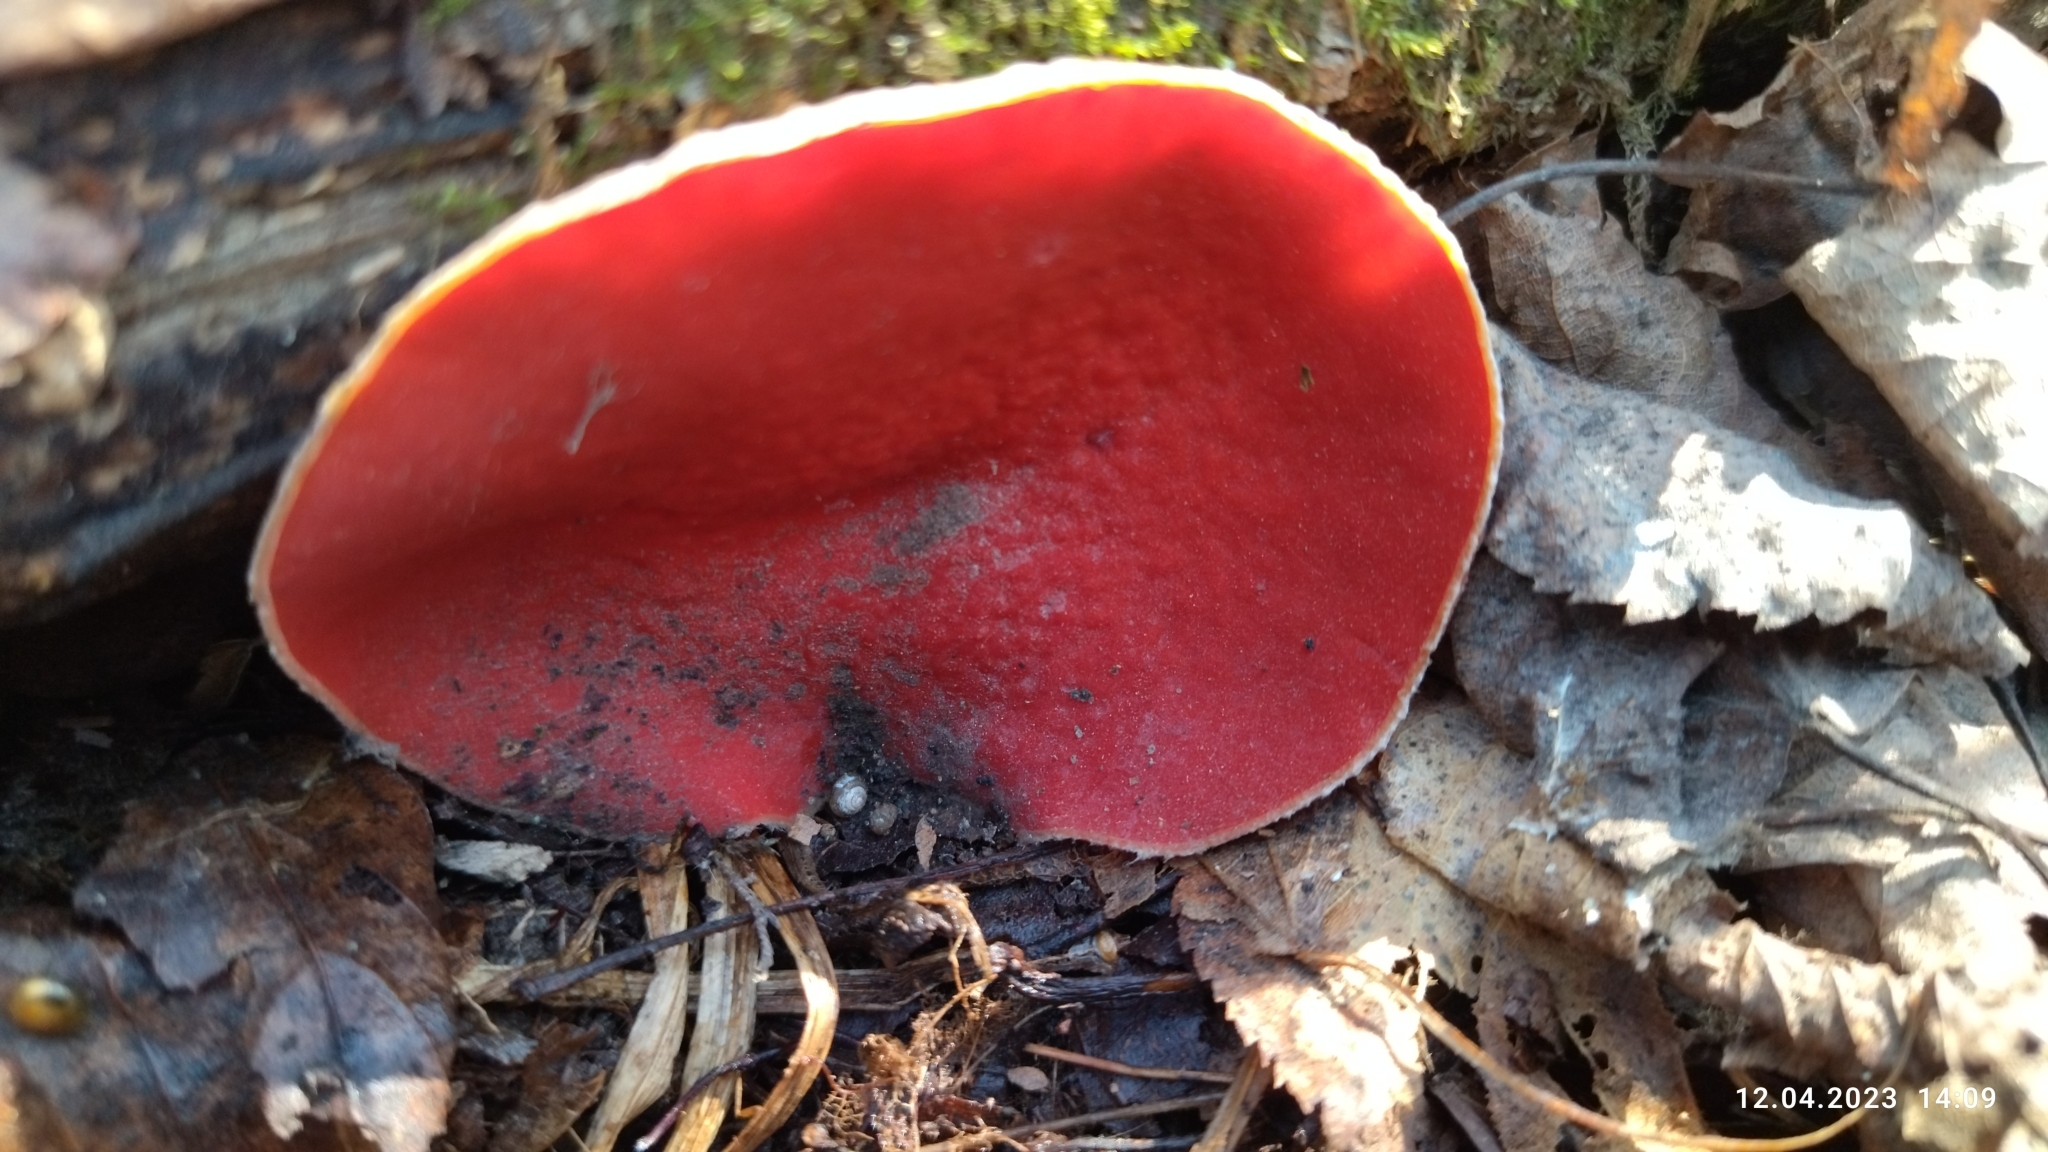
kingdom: Fungi
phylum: Ascomycota
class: Pezizomycetes
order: Pezizales
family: Sarcoscyphaceae
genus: Sarcoscypha
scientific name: Sarcoscypha austriaca
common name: Scarlet elfcup
